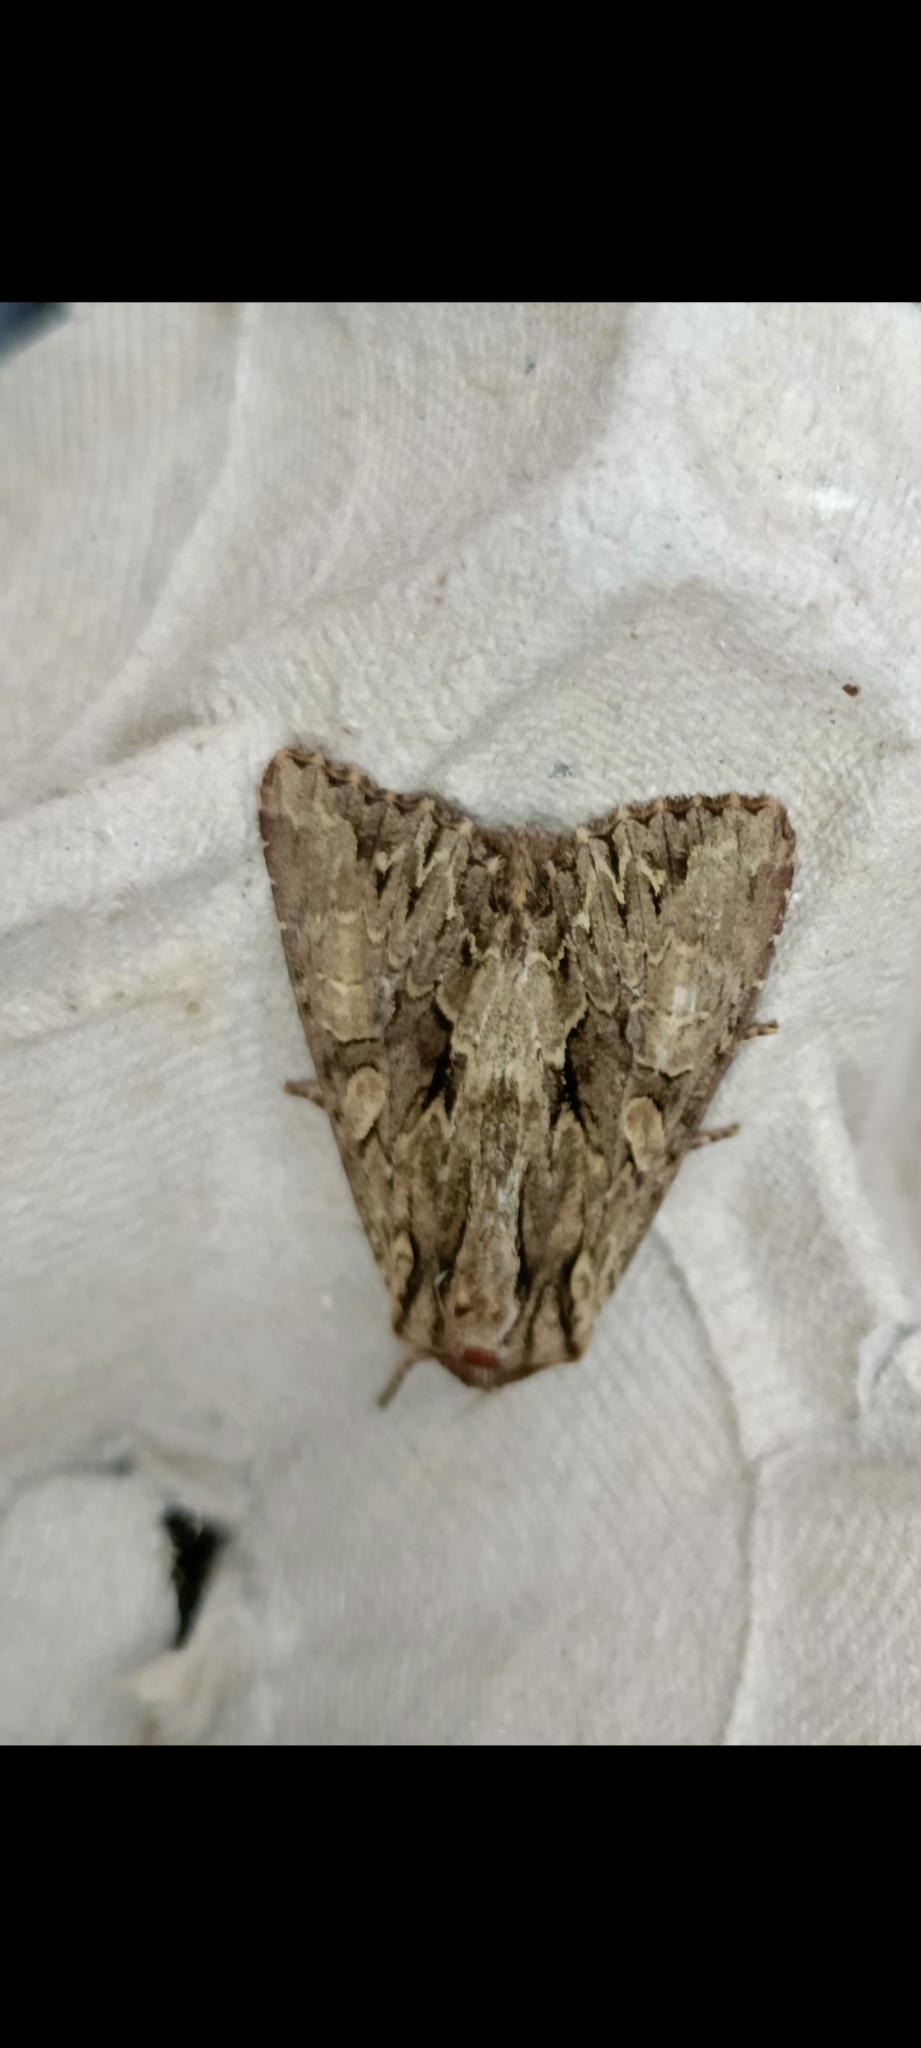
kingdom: Animalia
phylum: Arthropoda
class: Insecta
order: Lepidoptera
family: Noctuidae
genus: Apamea
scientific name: Apamea monoglypha
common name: Dark arches
